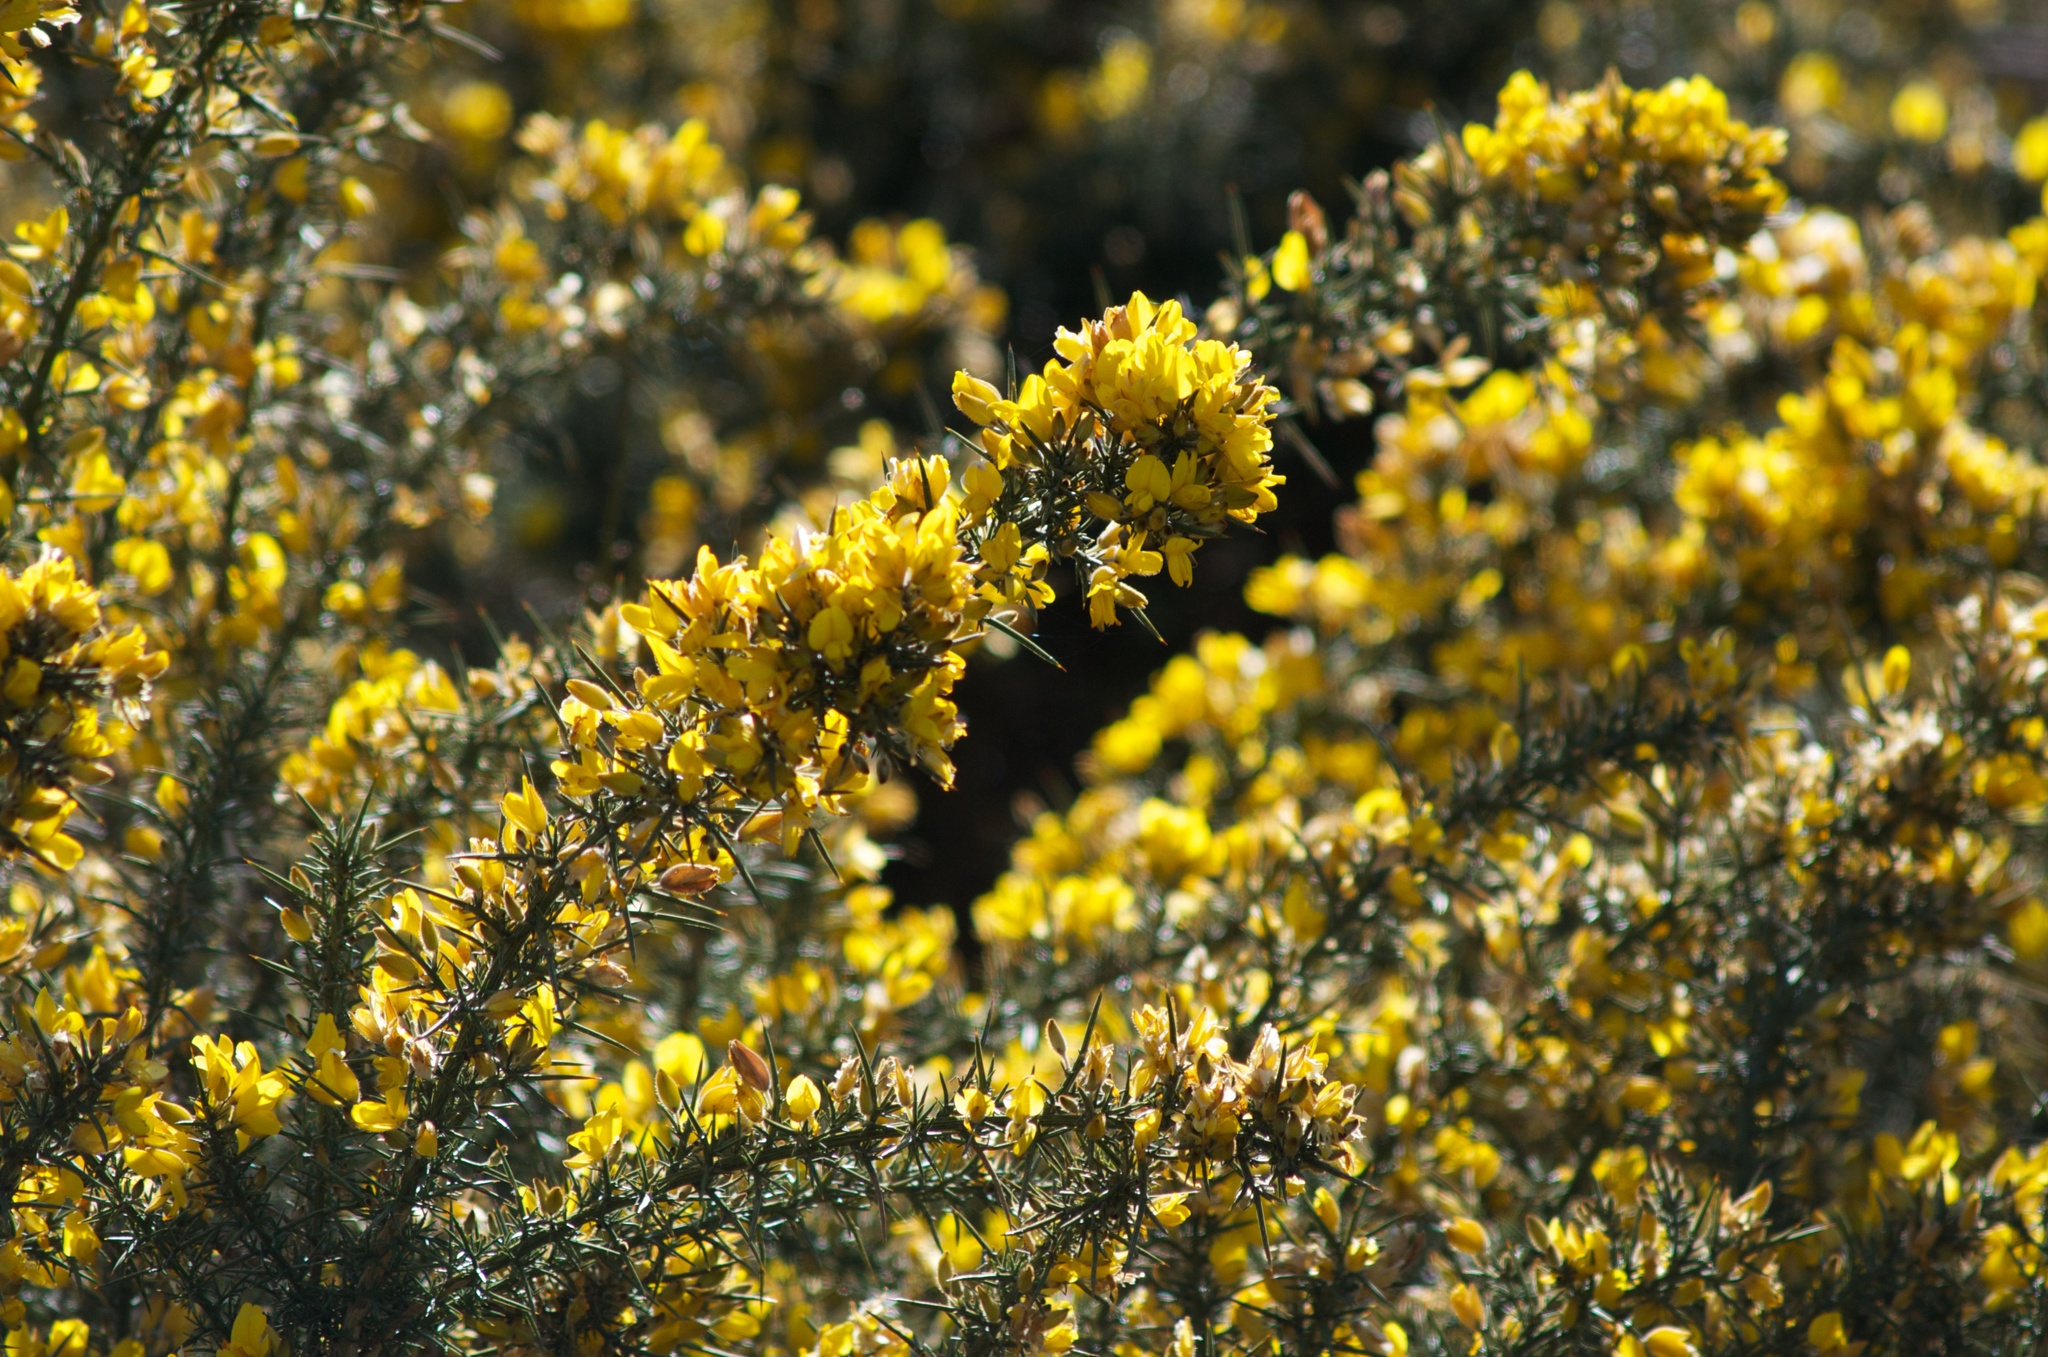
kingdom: Plantae
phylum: Tracheophyta
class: Magnoliopsida
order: Fabales
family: Fabaceae
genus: Ulex
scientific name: Ulex europaeus
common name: Common gorse
